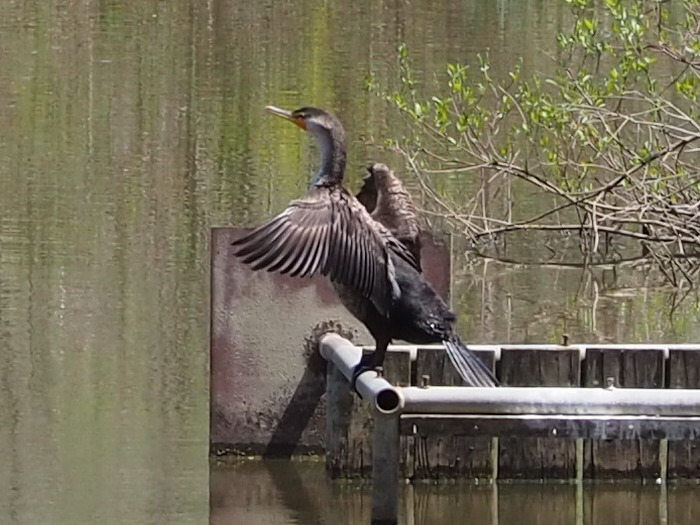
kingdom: Animalia
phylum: Chordata
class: Aves
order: Suliformes
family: Phalacrocoracidae
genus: Phalacrocorax
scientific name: Phalacrocorax auritus
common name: Double-crested cormorant
